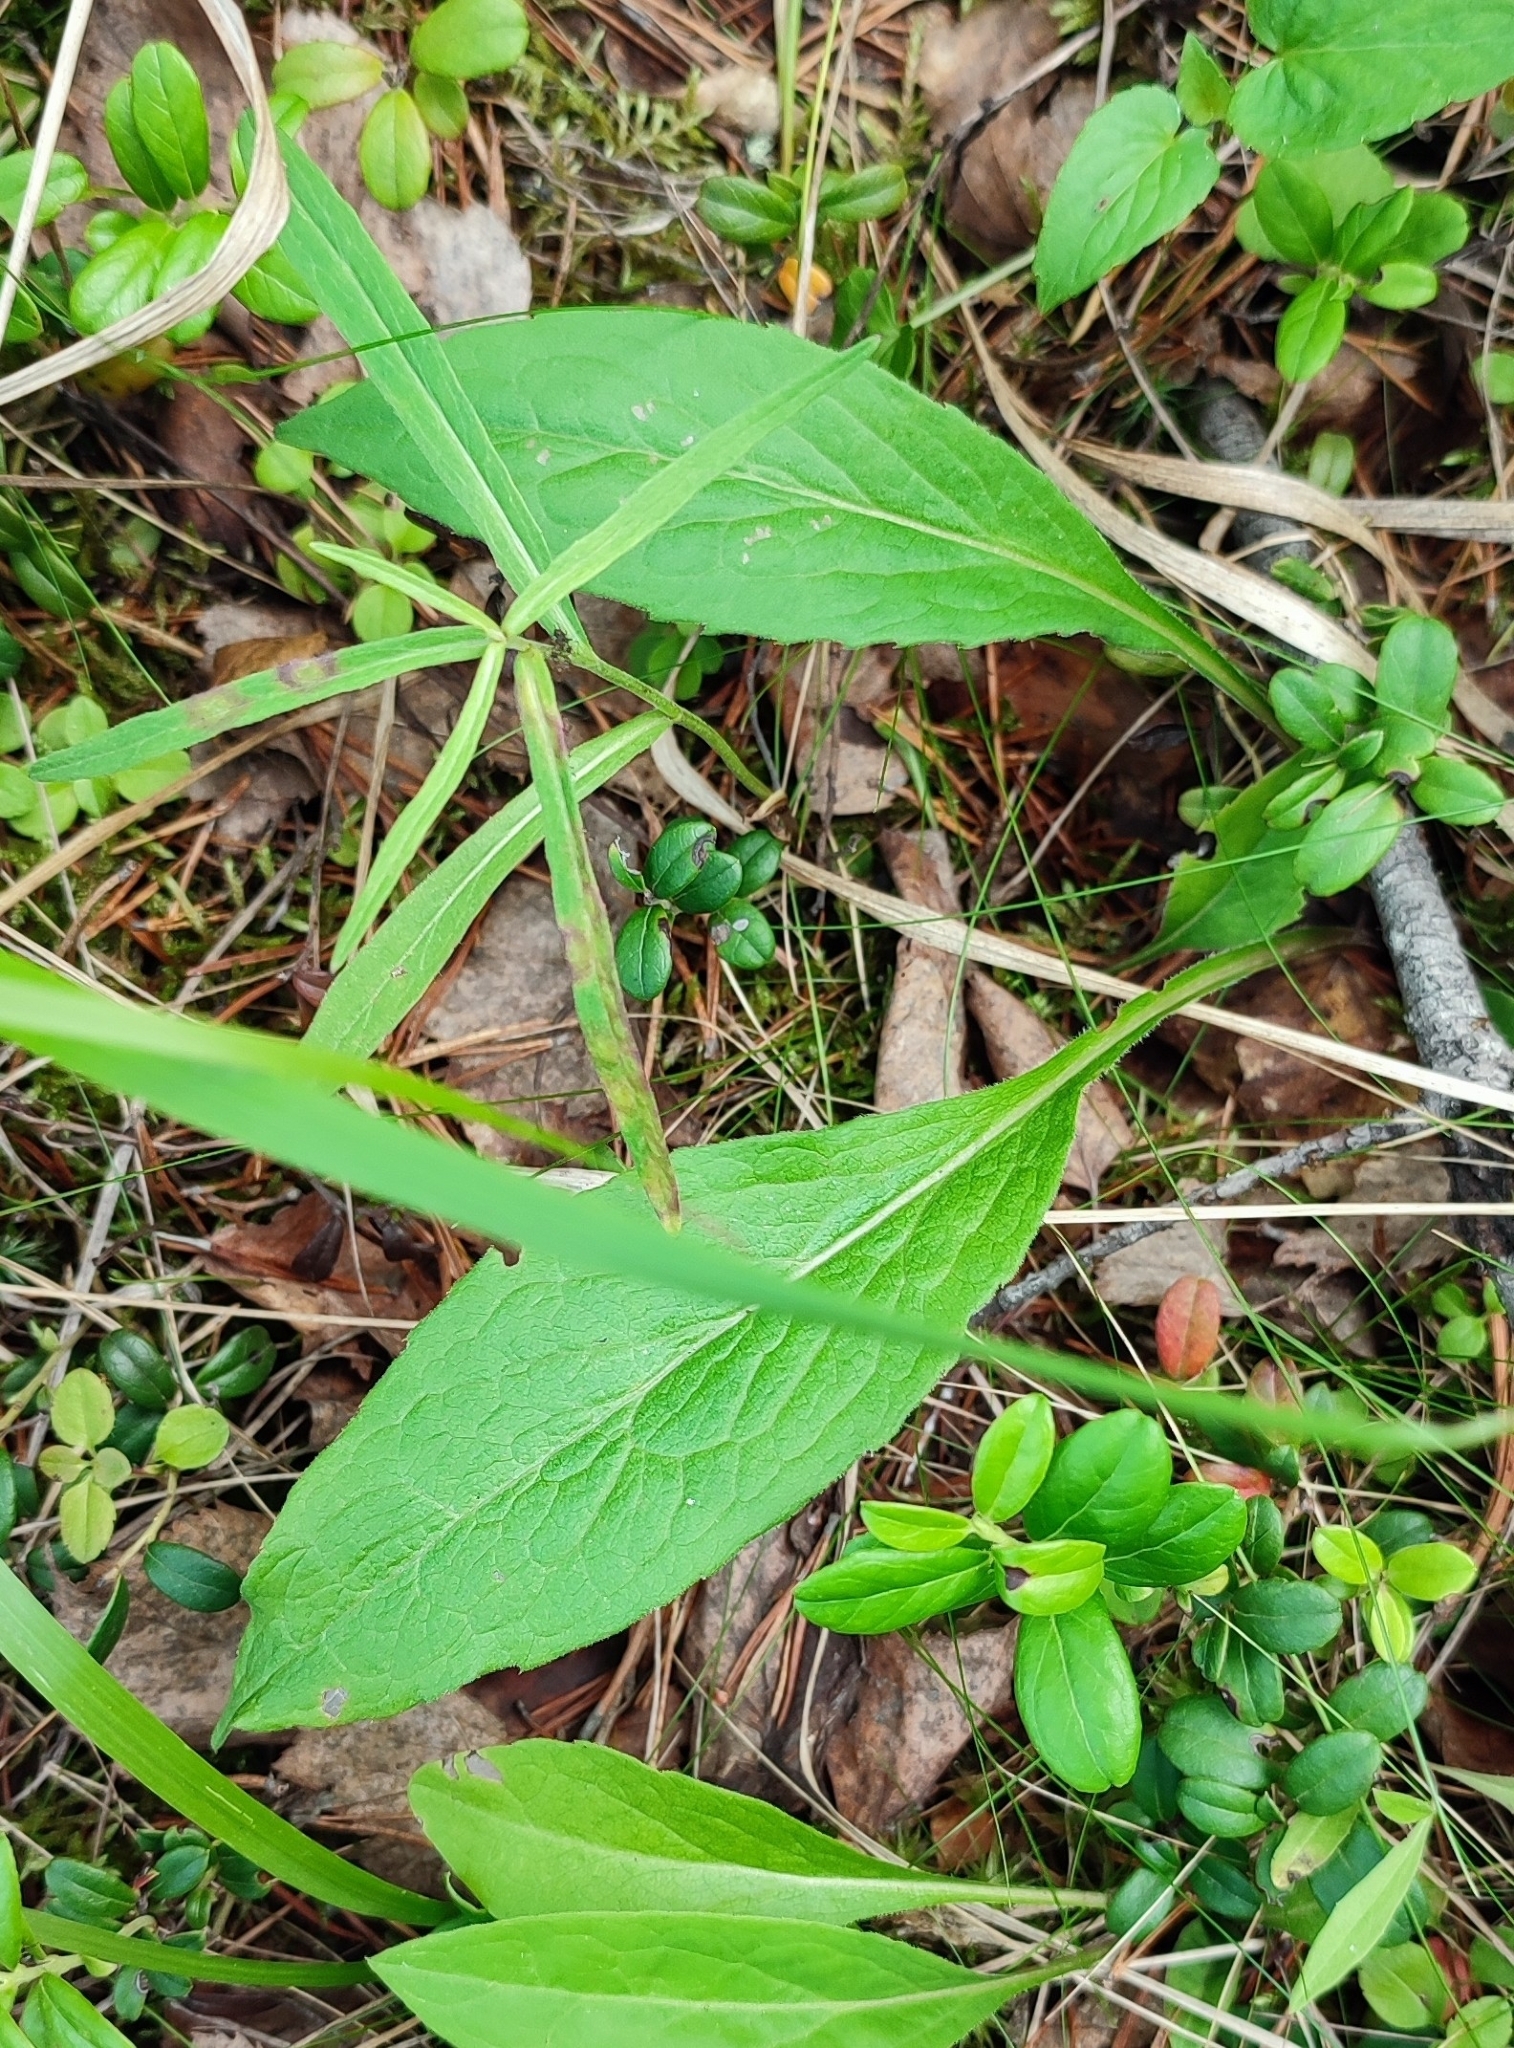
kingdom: Plantae
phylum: Tracheophyta
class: Magnoliopsida
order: Asterales
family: Asteraceae
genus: Solidago
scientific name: Solidago virgaurea
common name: Goldenrod
